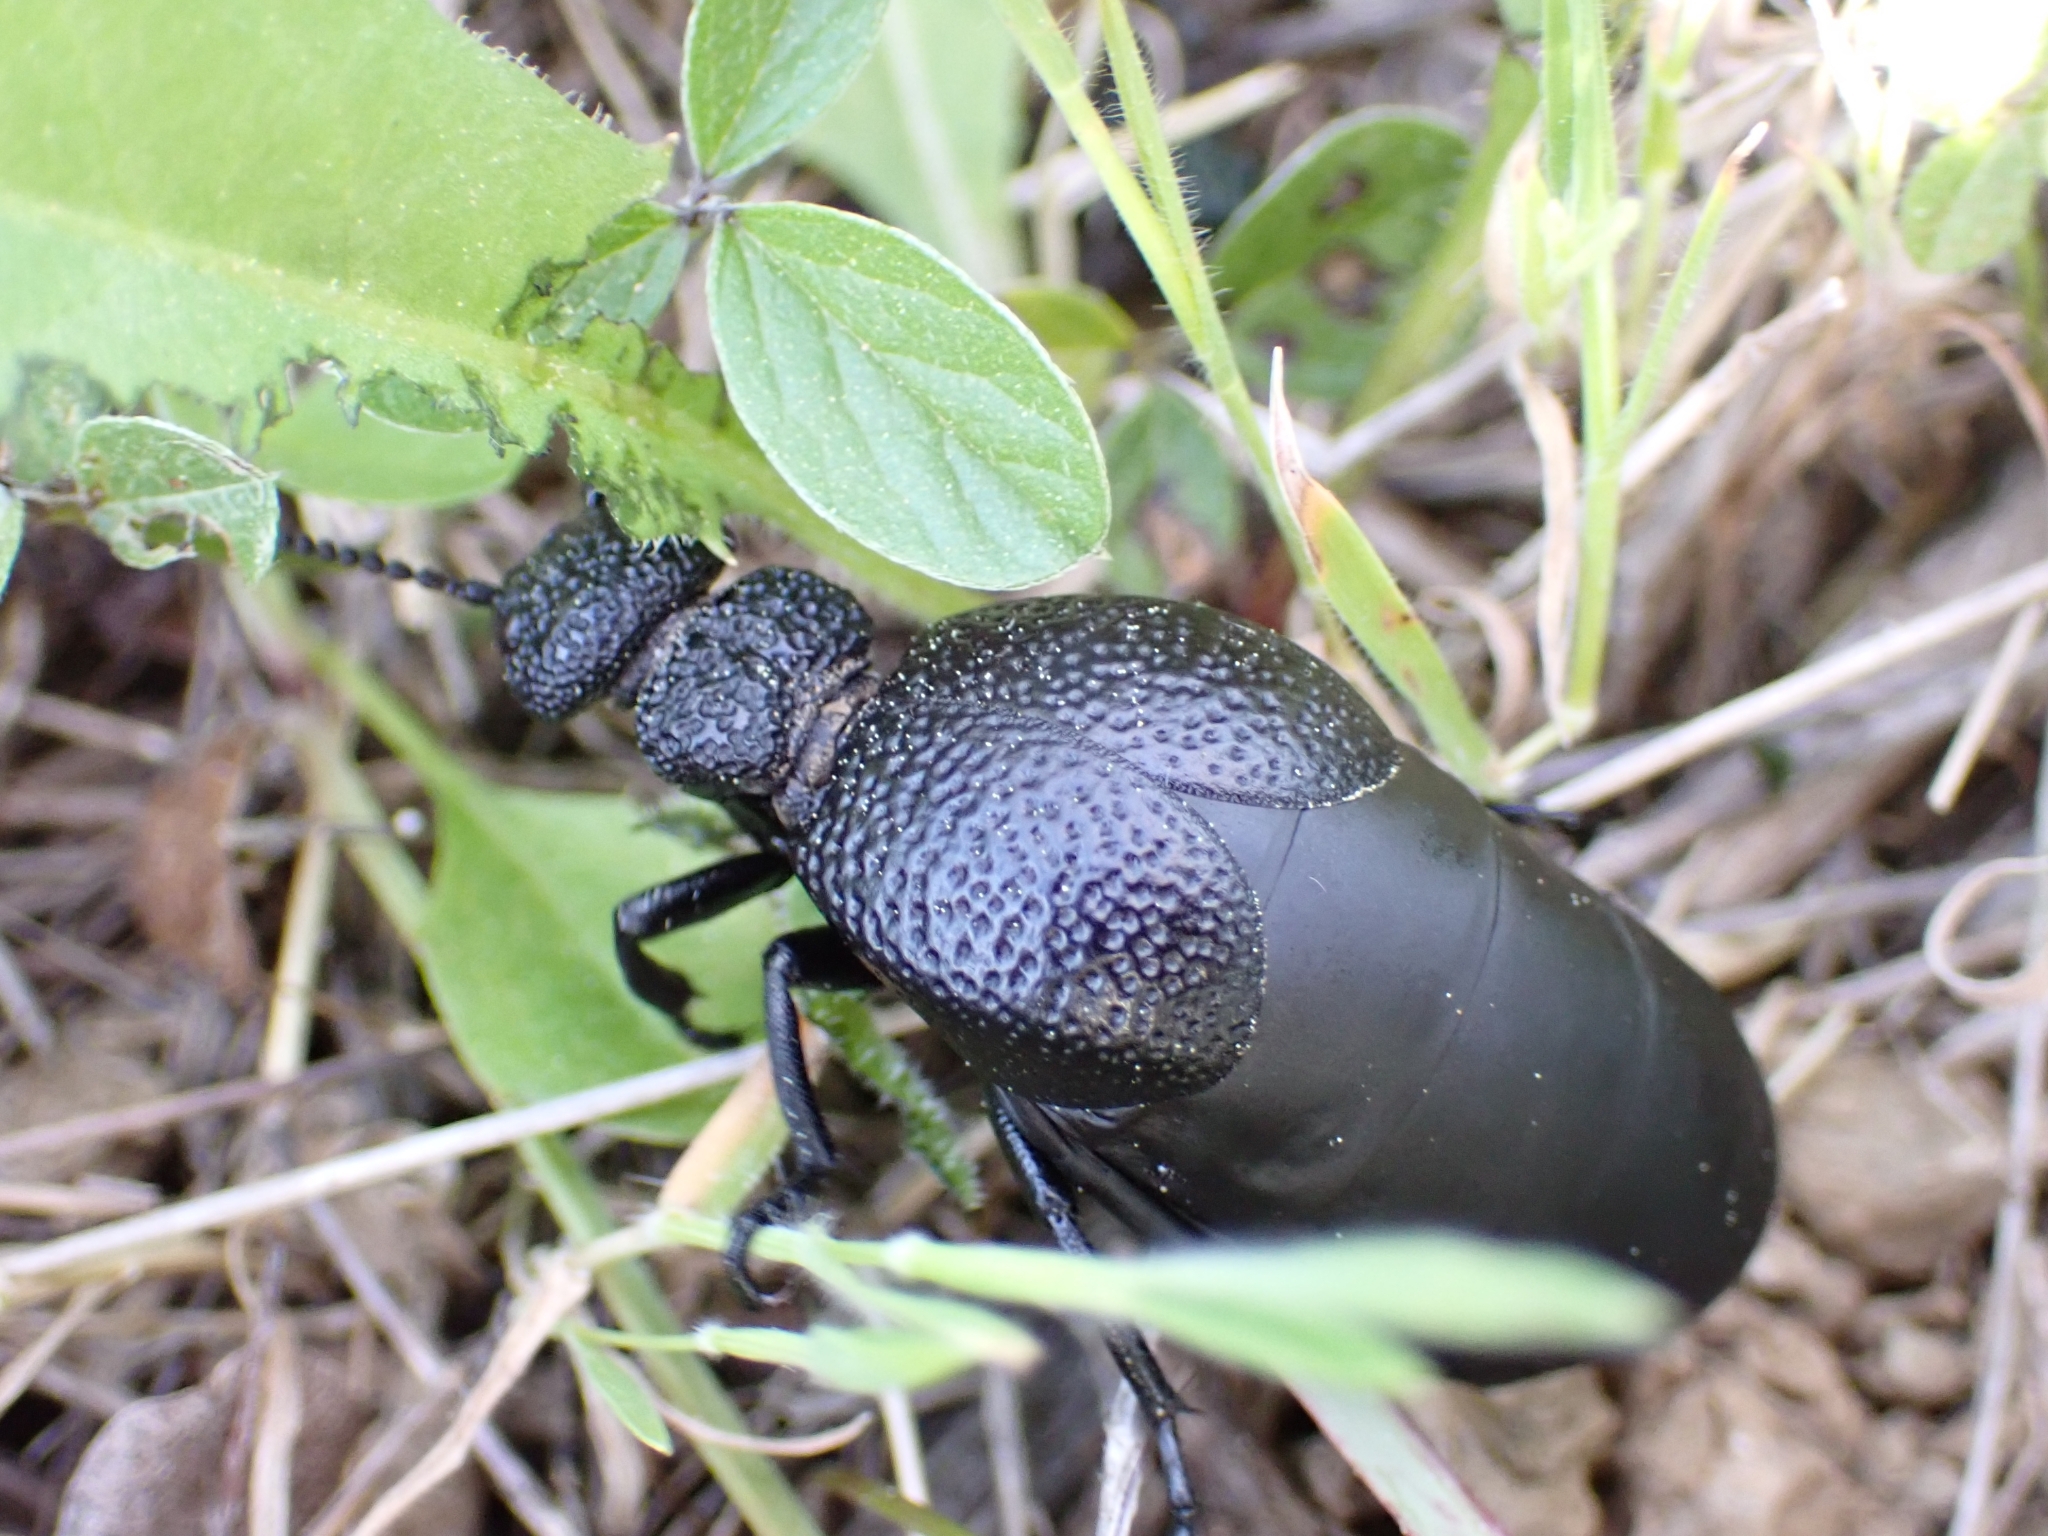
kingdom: Animalia
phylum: Arthropoda
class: Insecta
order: Coleoptera
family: Meloidae
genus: Meloe
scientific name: Meloe tuccius
